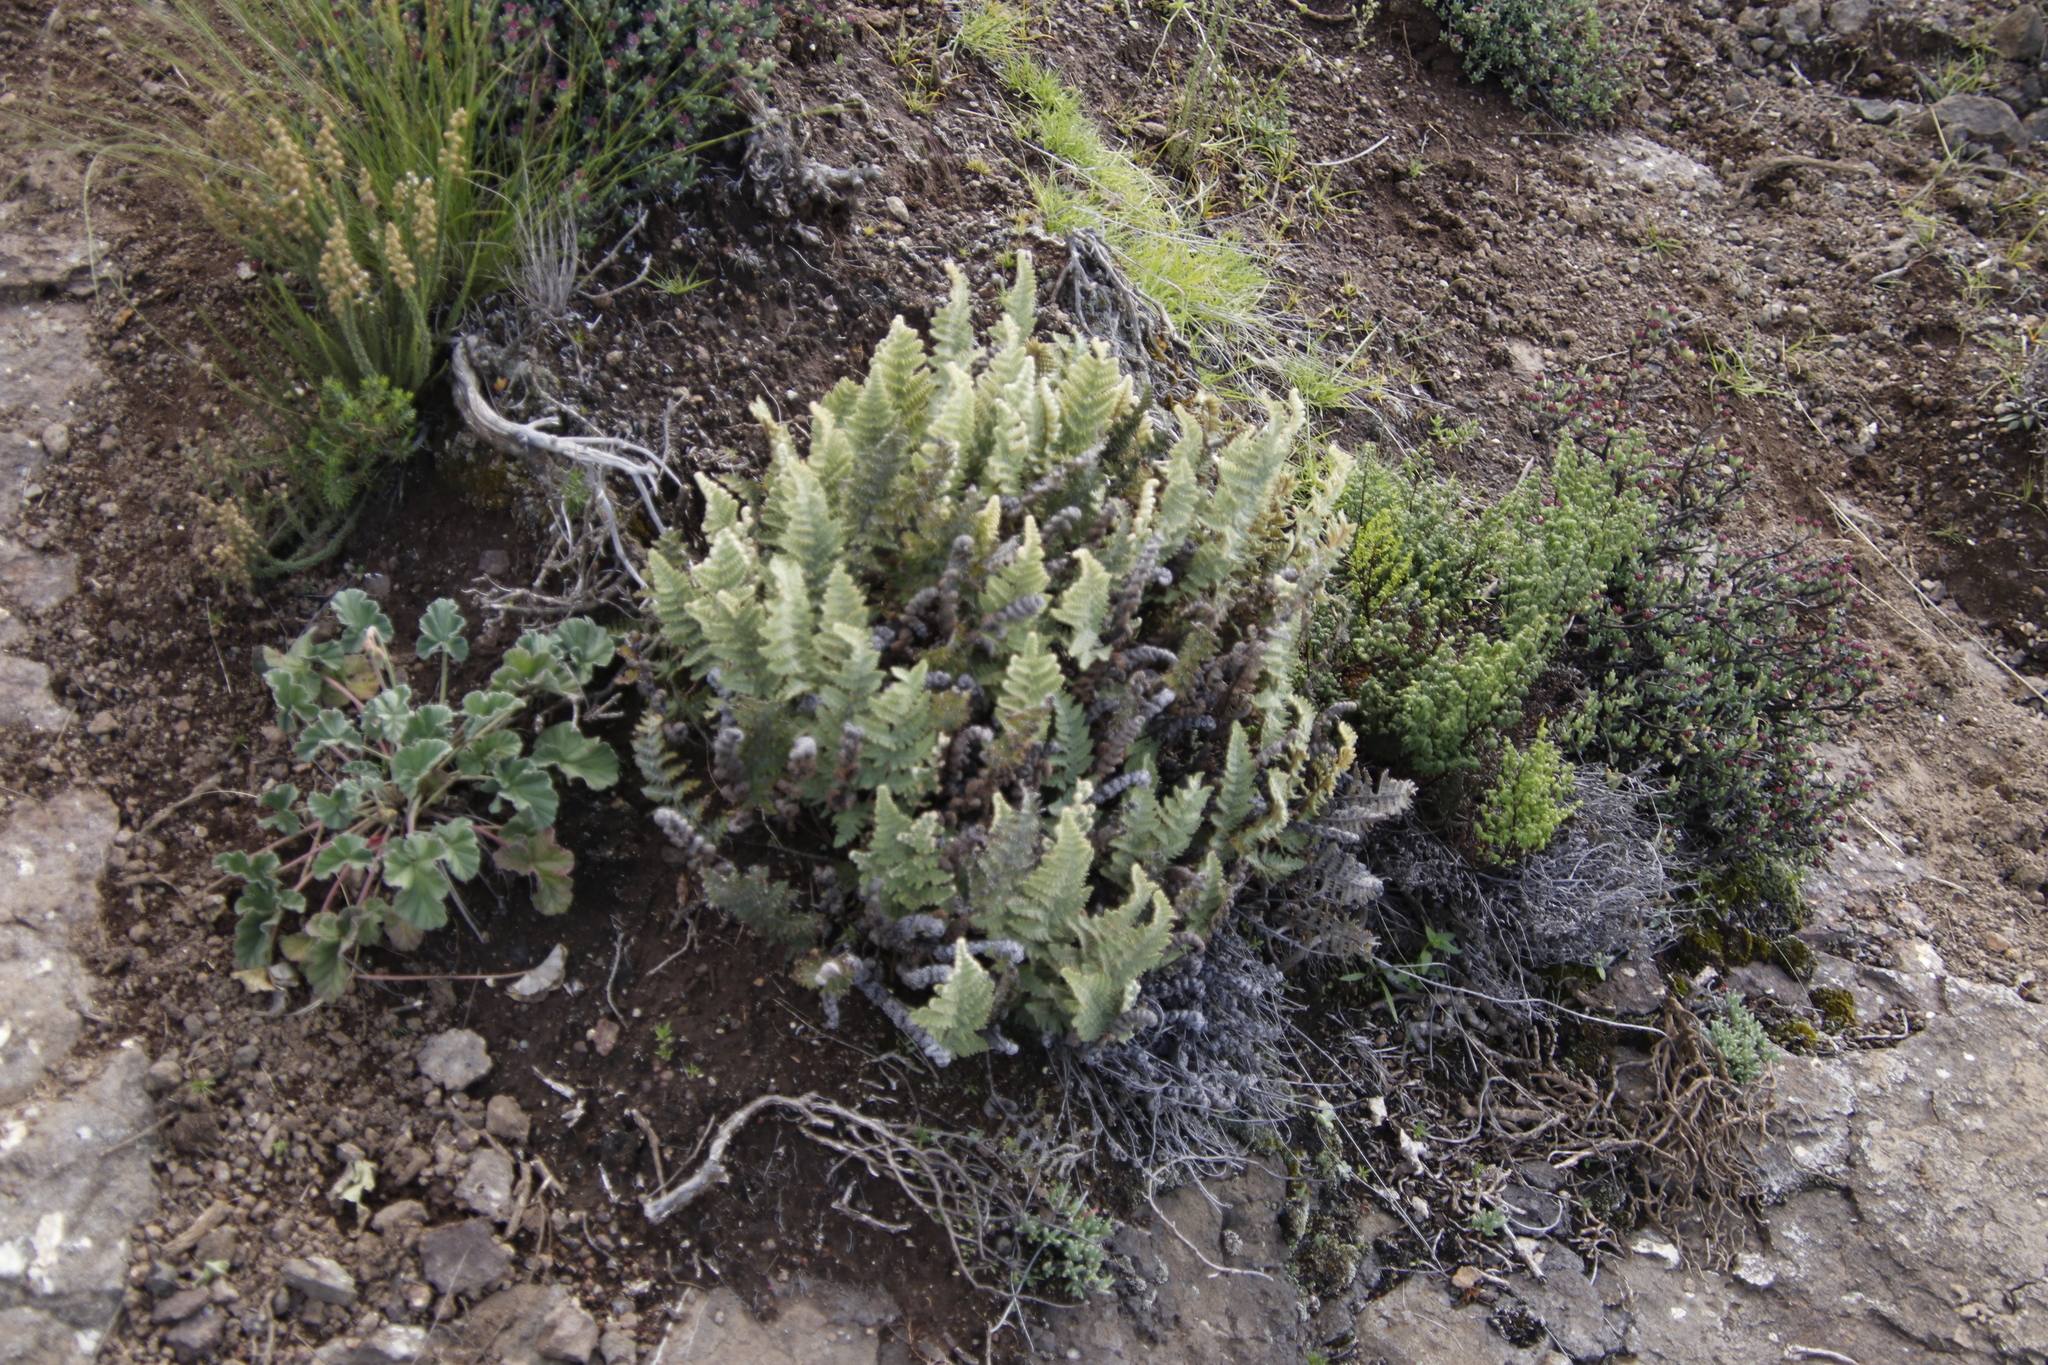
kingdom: Plantae
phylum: Tracheophyta
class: Polypodiopsida
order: Polypodiales
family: Pteridaceae
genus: Cheilanthes
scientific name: Cheilanthes eckloniana
